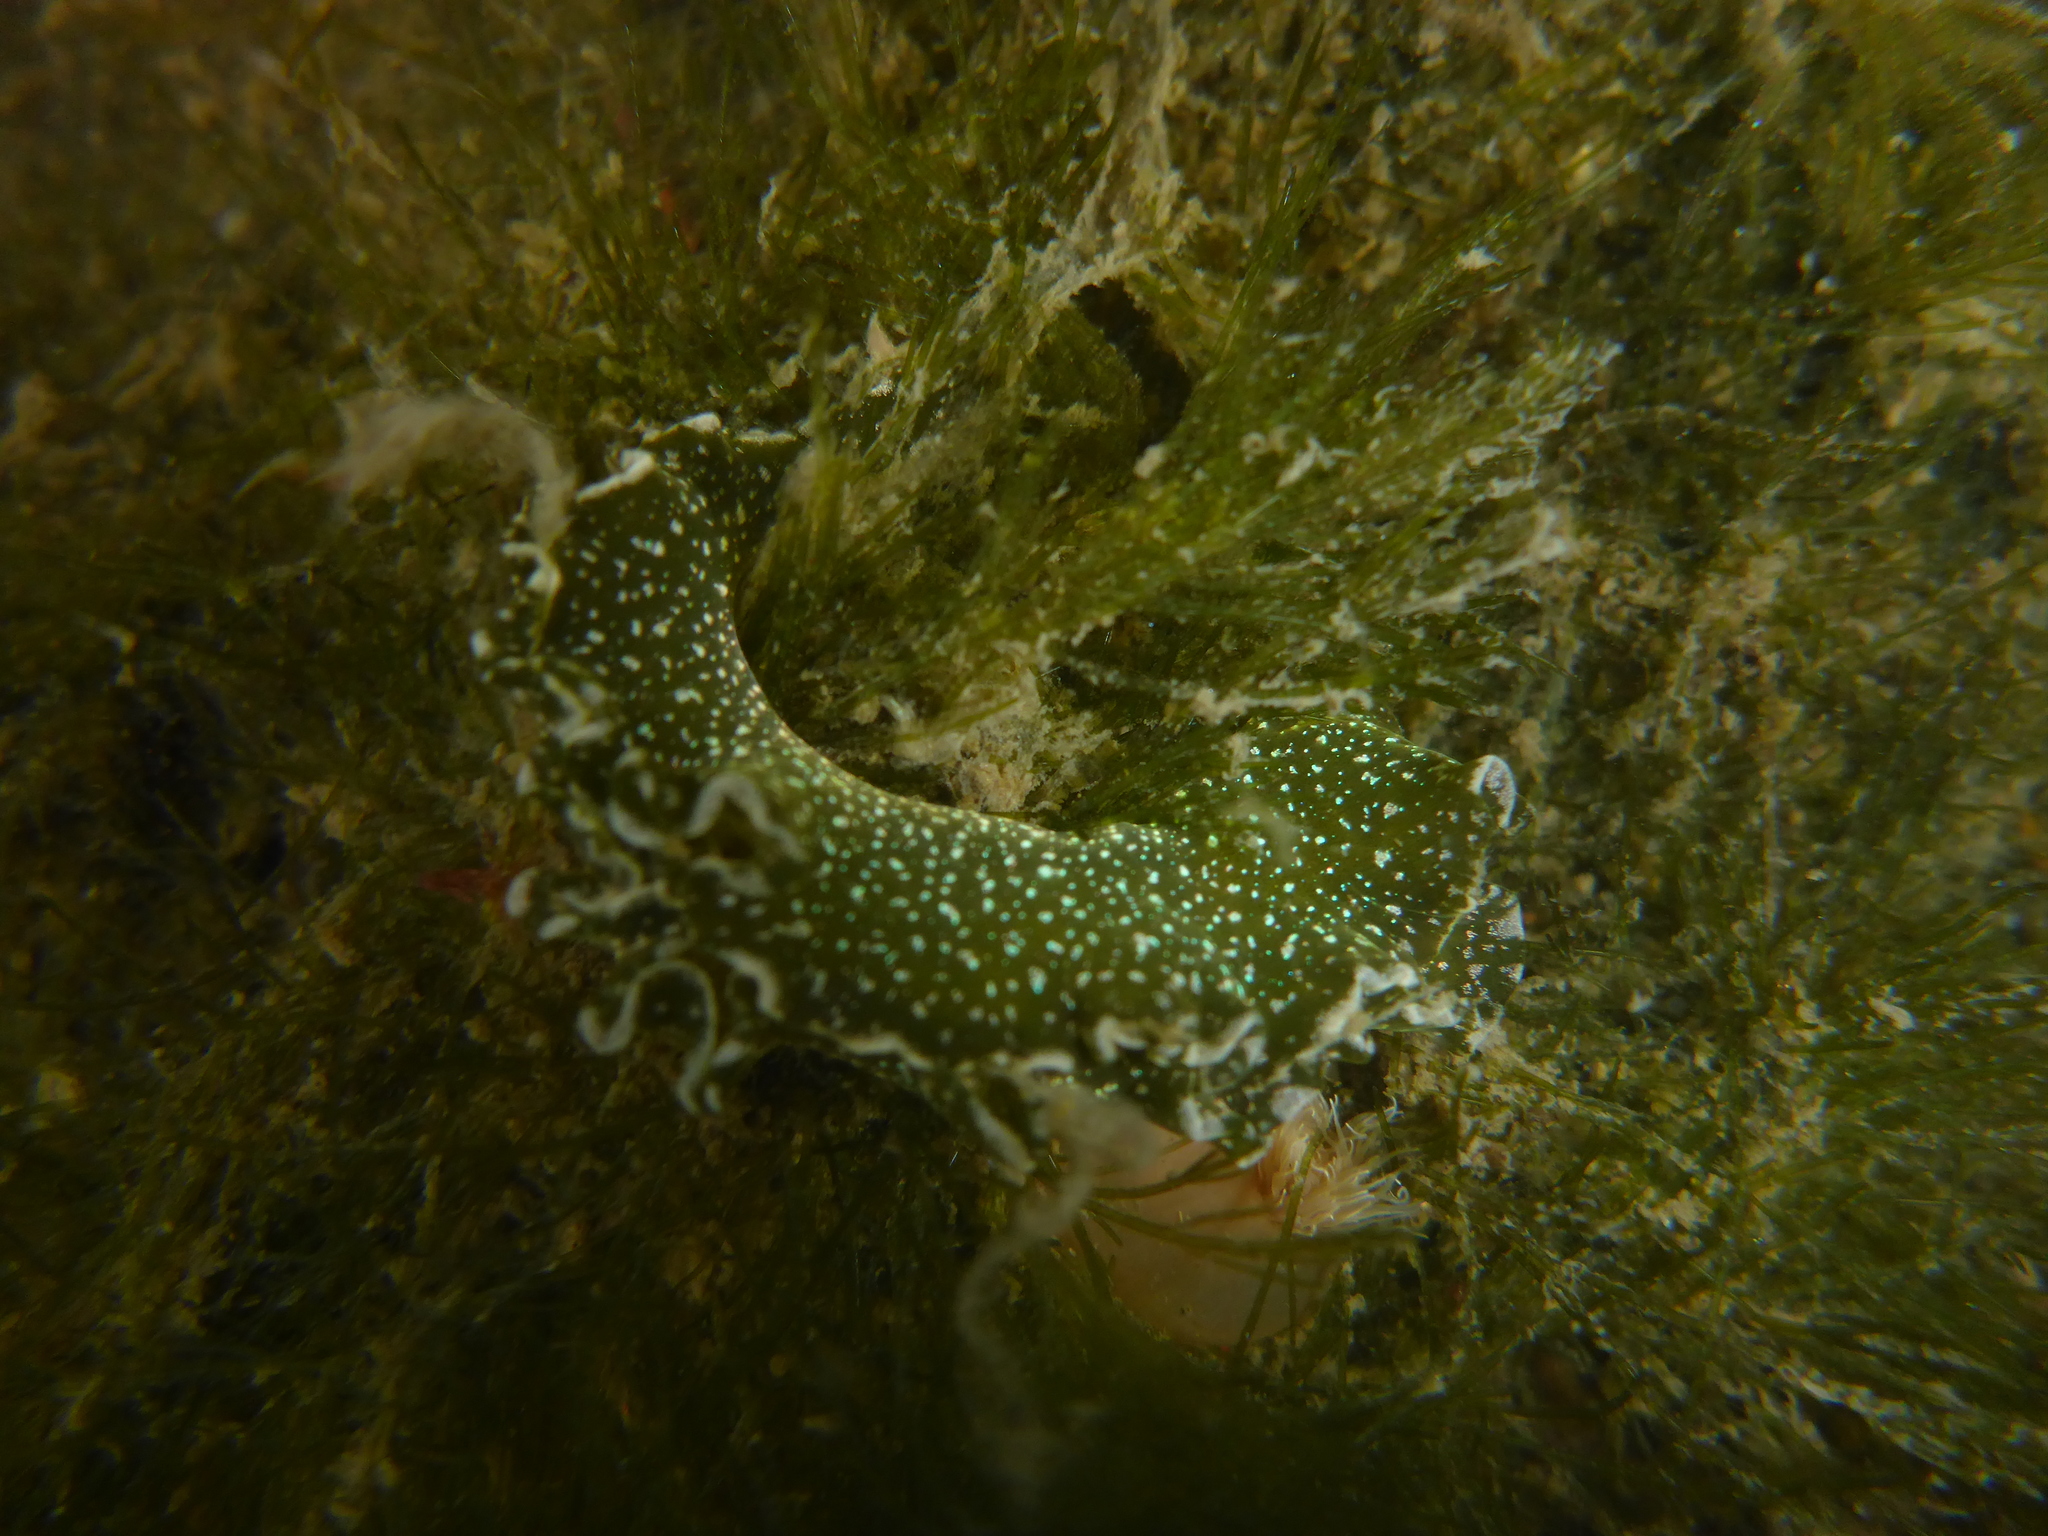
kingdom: Animalia
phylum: Mollusca
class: Gastropoda
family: Plakobranchidae
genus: Elysia
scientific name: Elysia hedgpethi
